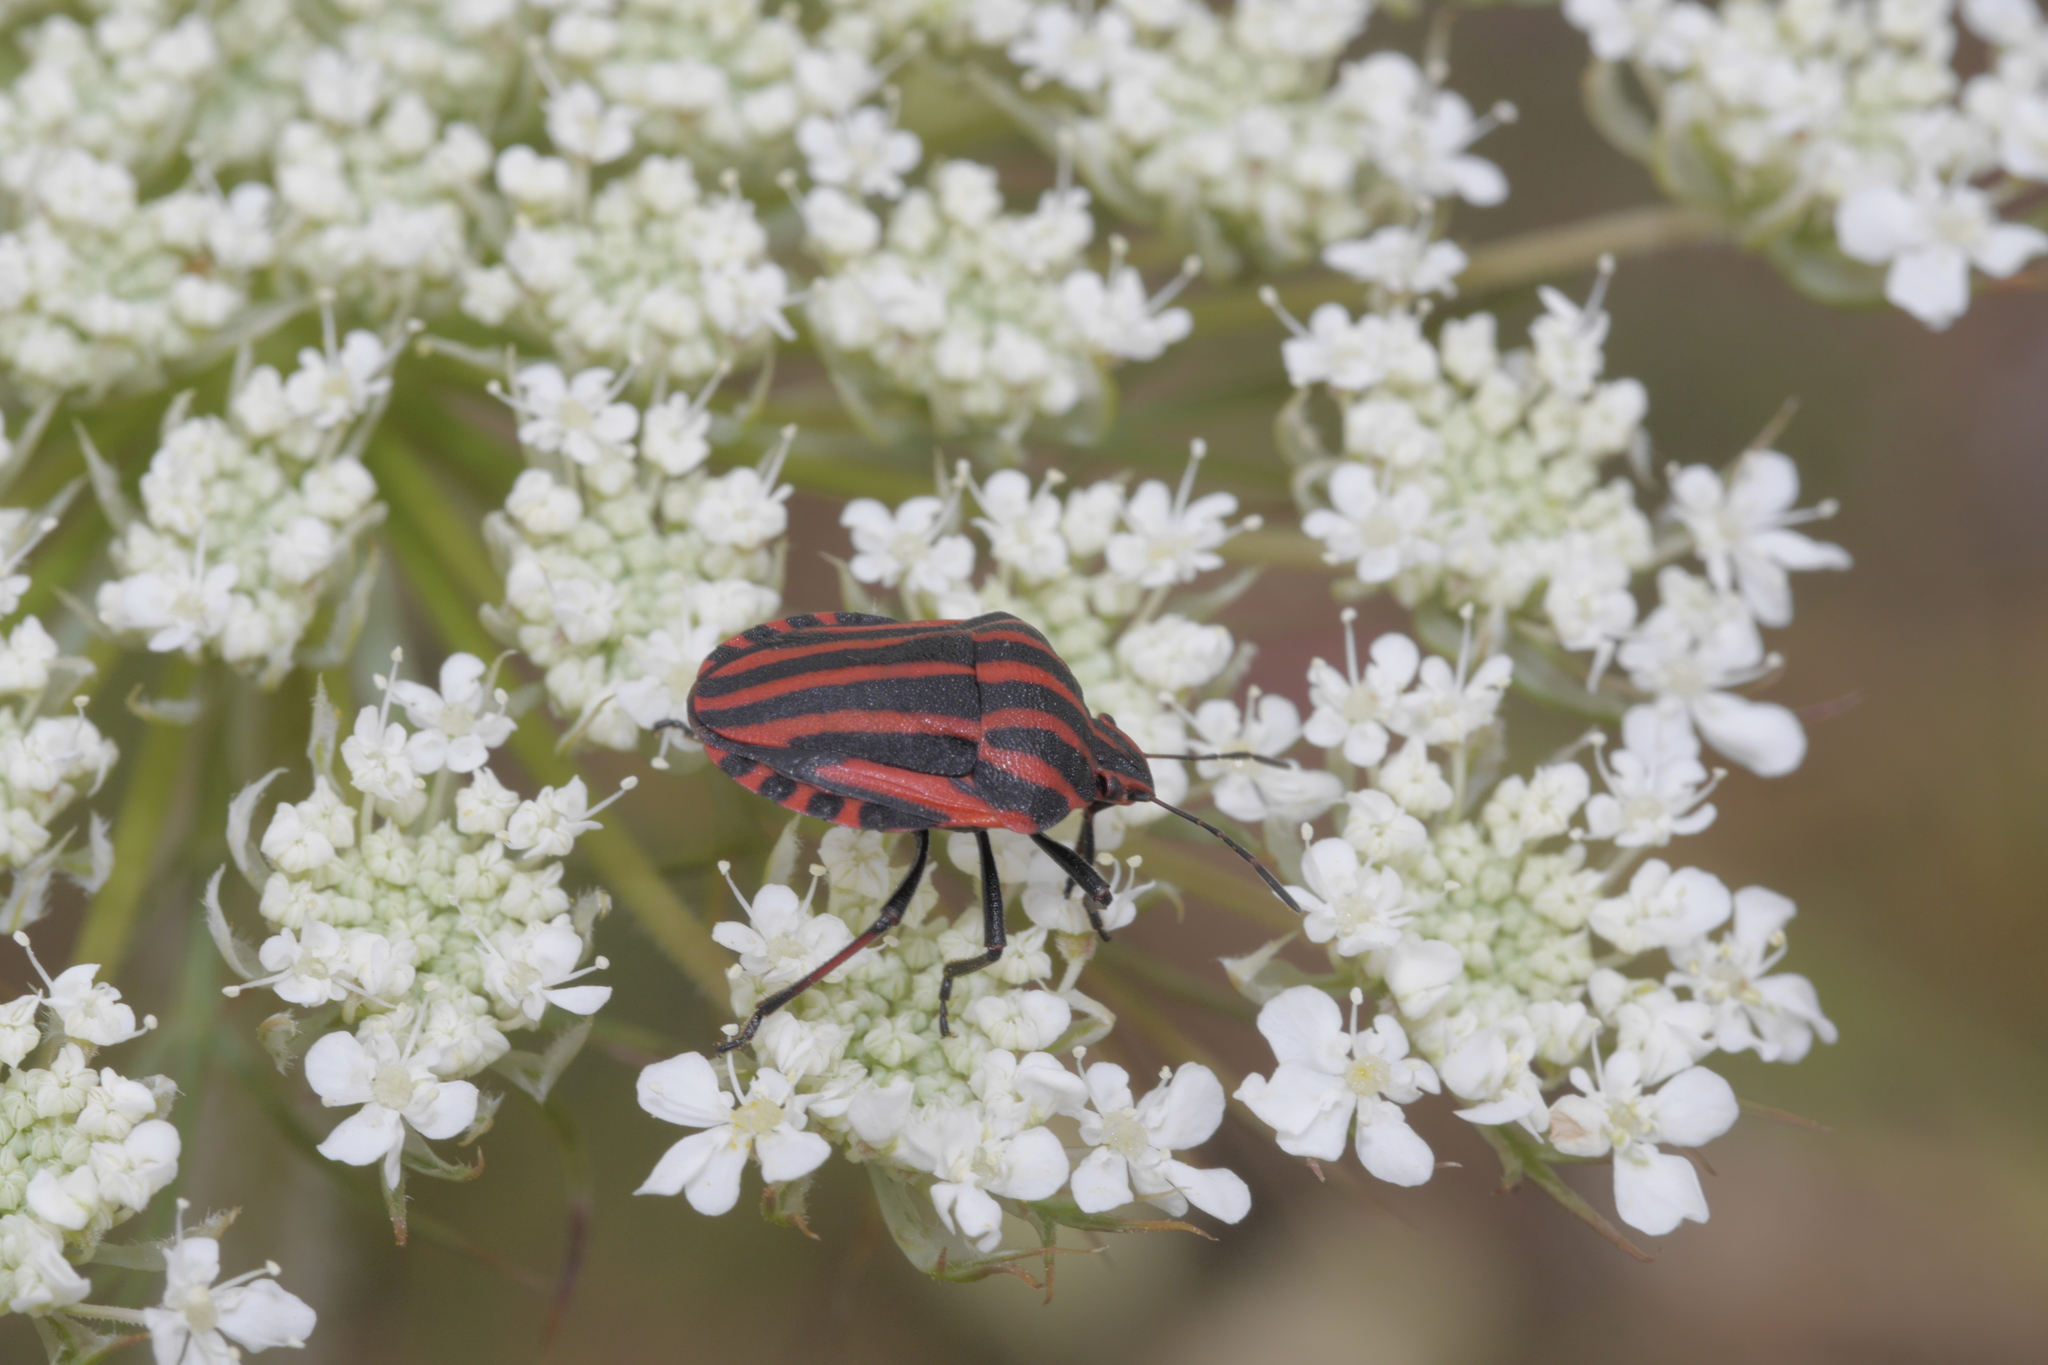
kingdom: Animalia
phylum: Arthropoda
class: Insecta
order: Hemiptera
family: Pentatomidae
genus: Graphosoma
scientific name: Graphosoma italicum
